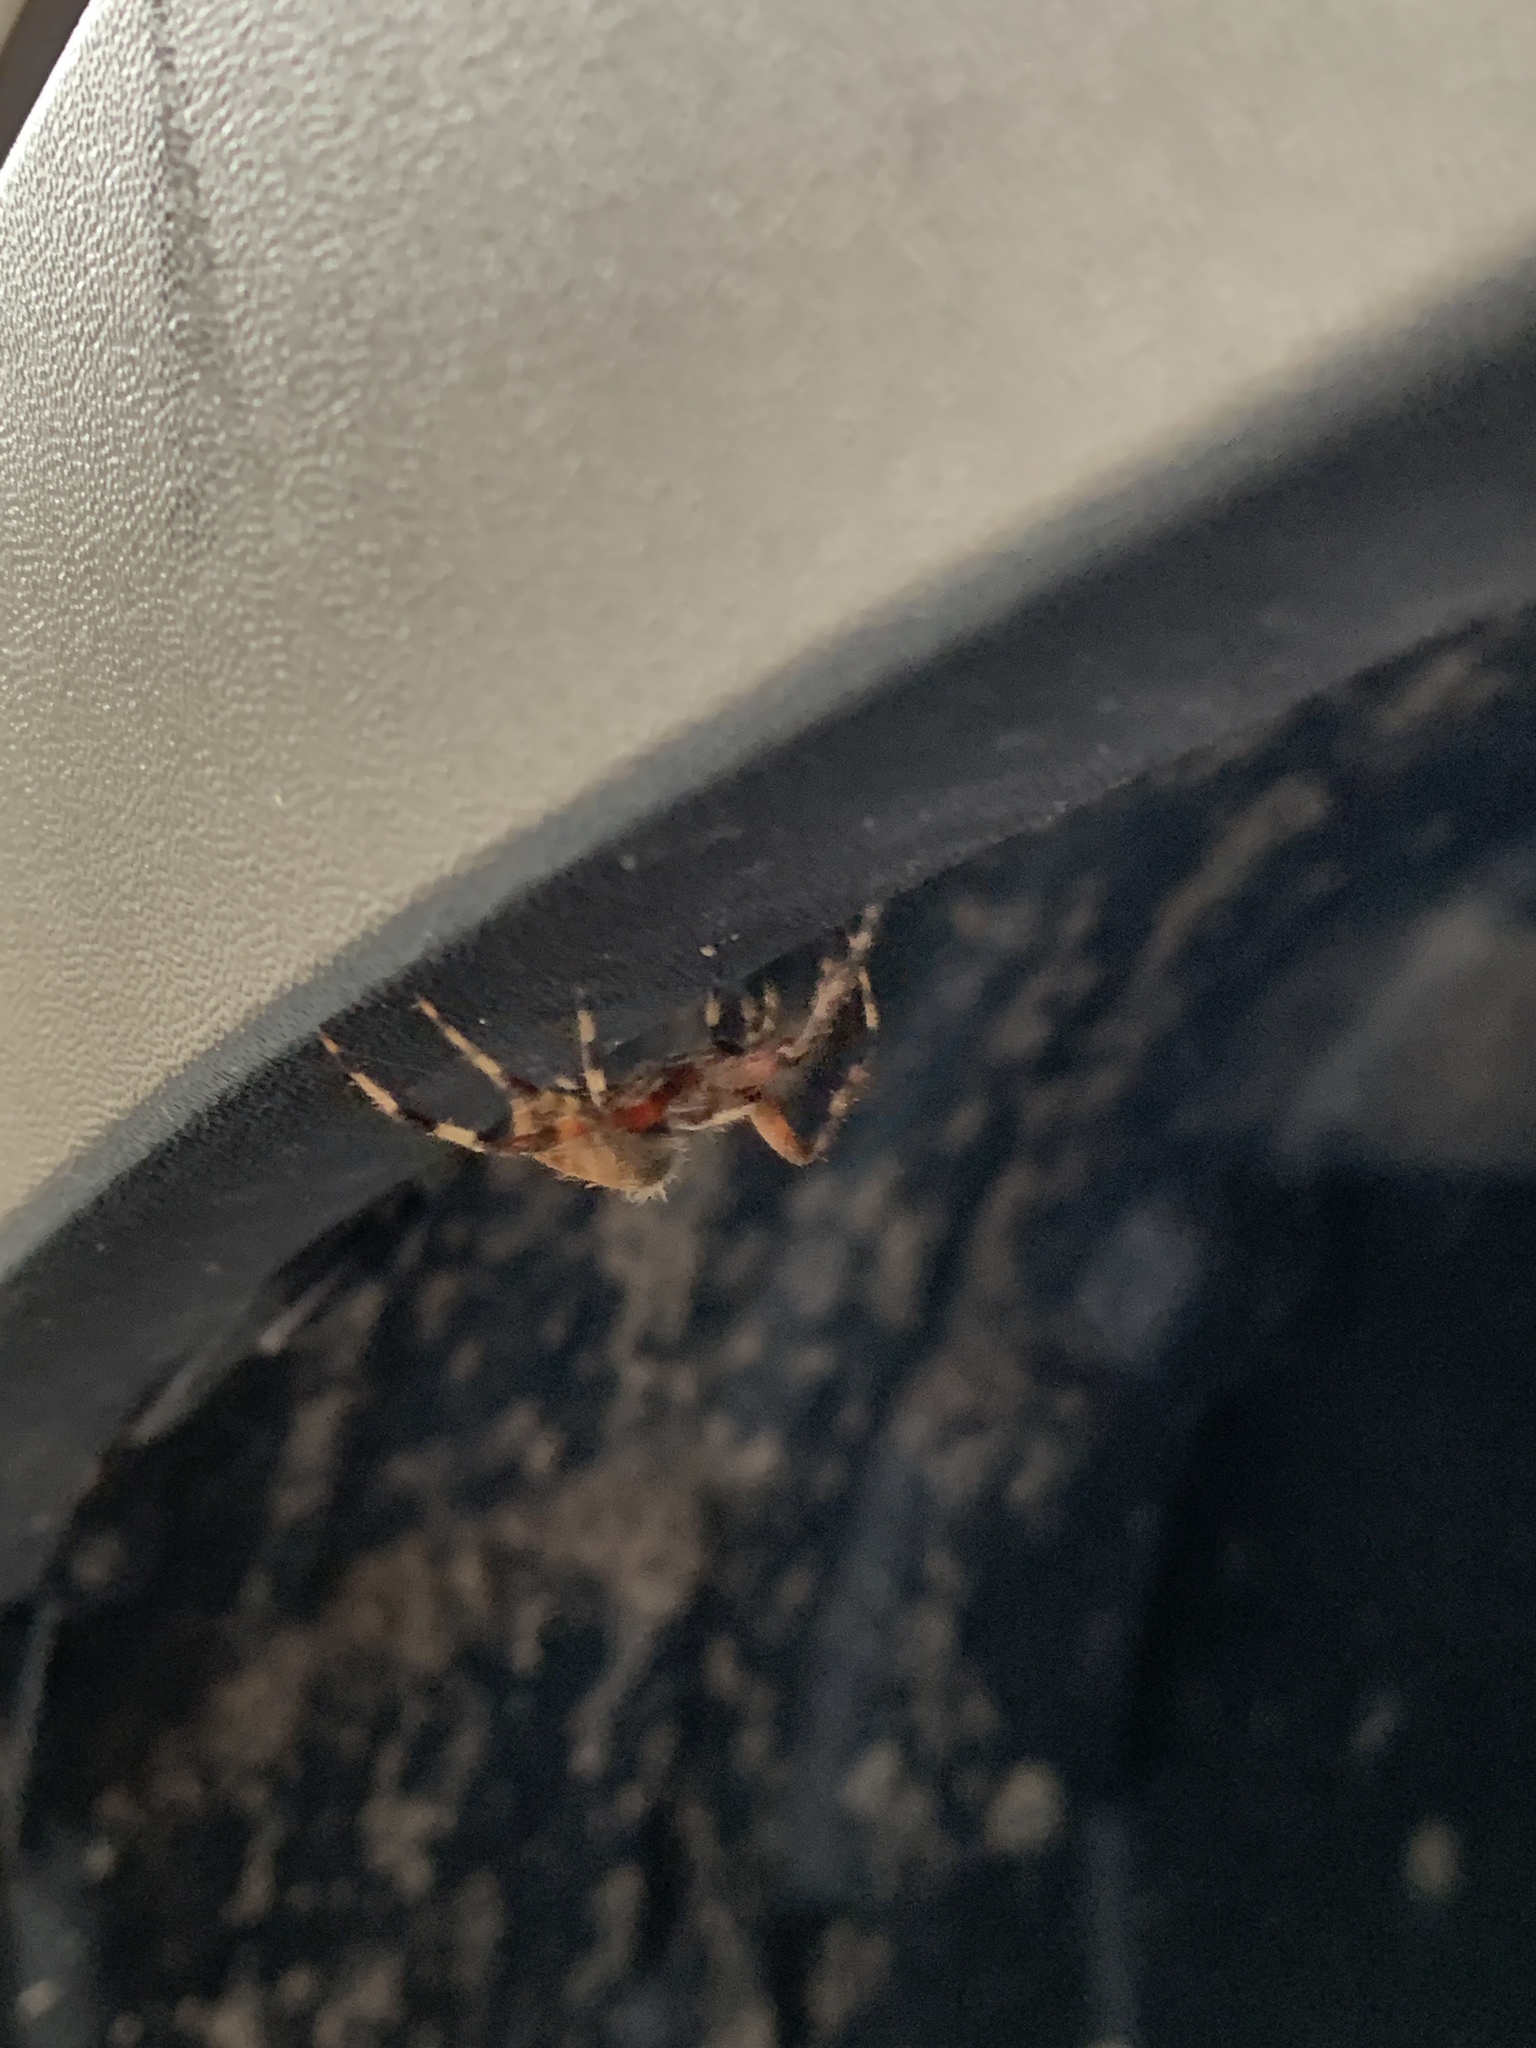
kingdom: Animalia
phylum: Arthropoda
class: Arachnida
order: Araneae
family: Araneidae
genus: Neoscona
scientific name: Neoscona crucifera
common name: Spotted orbweaver
